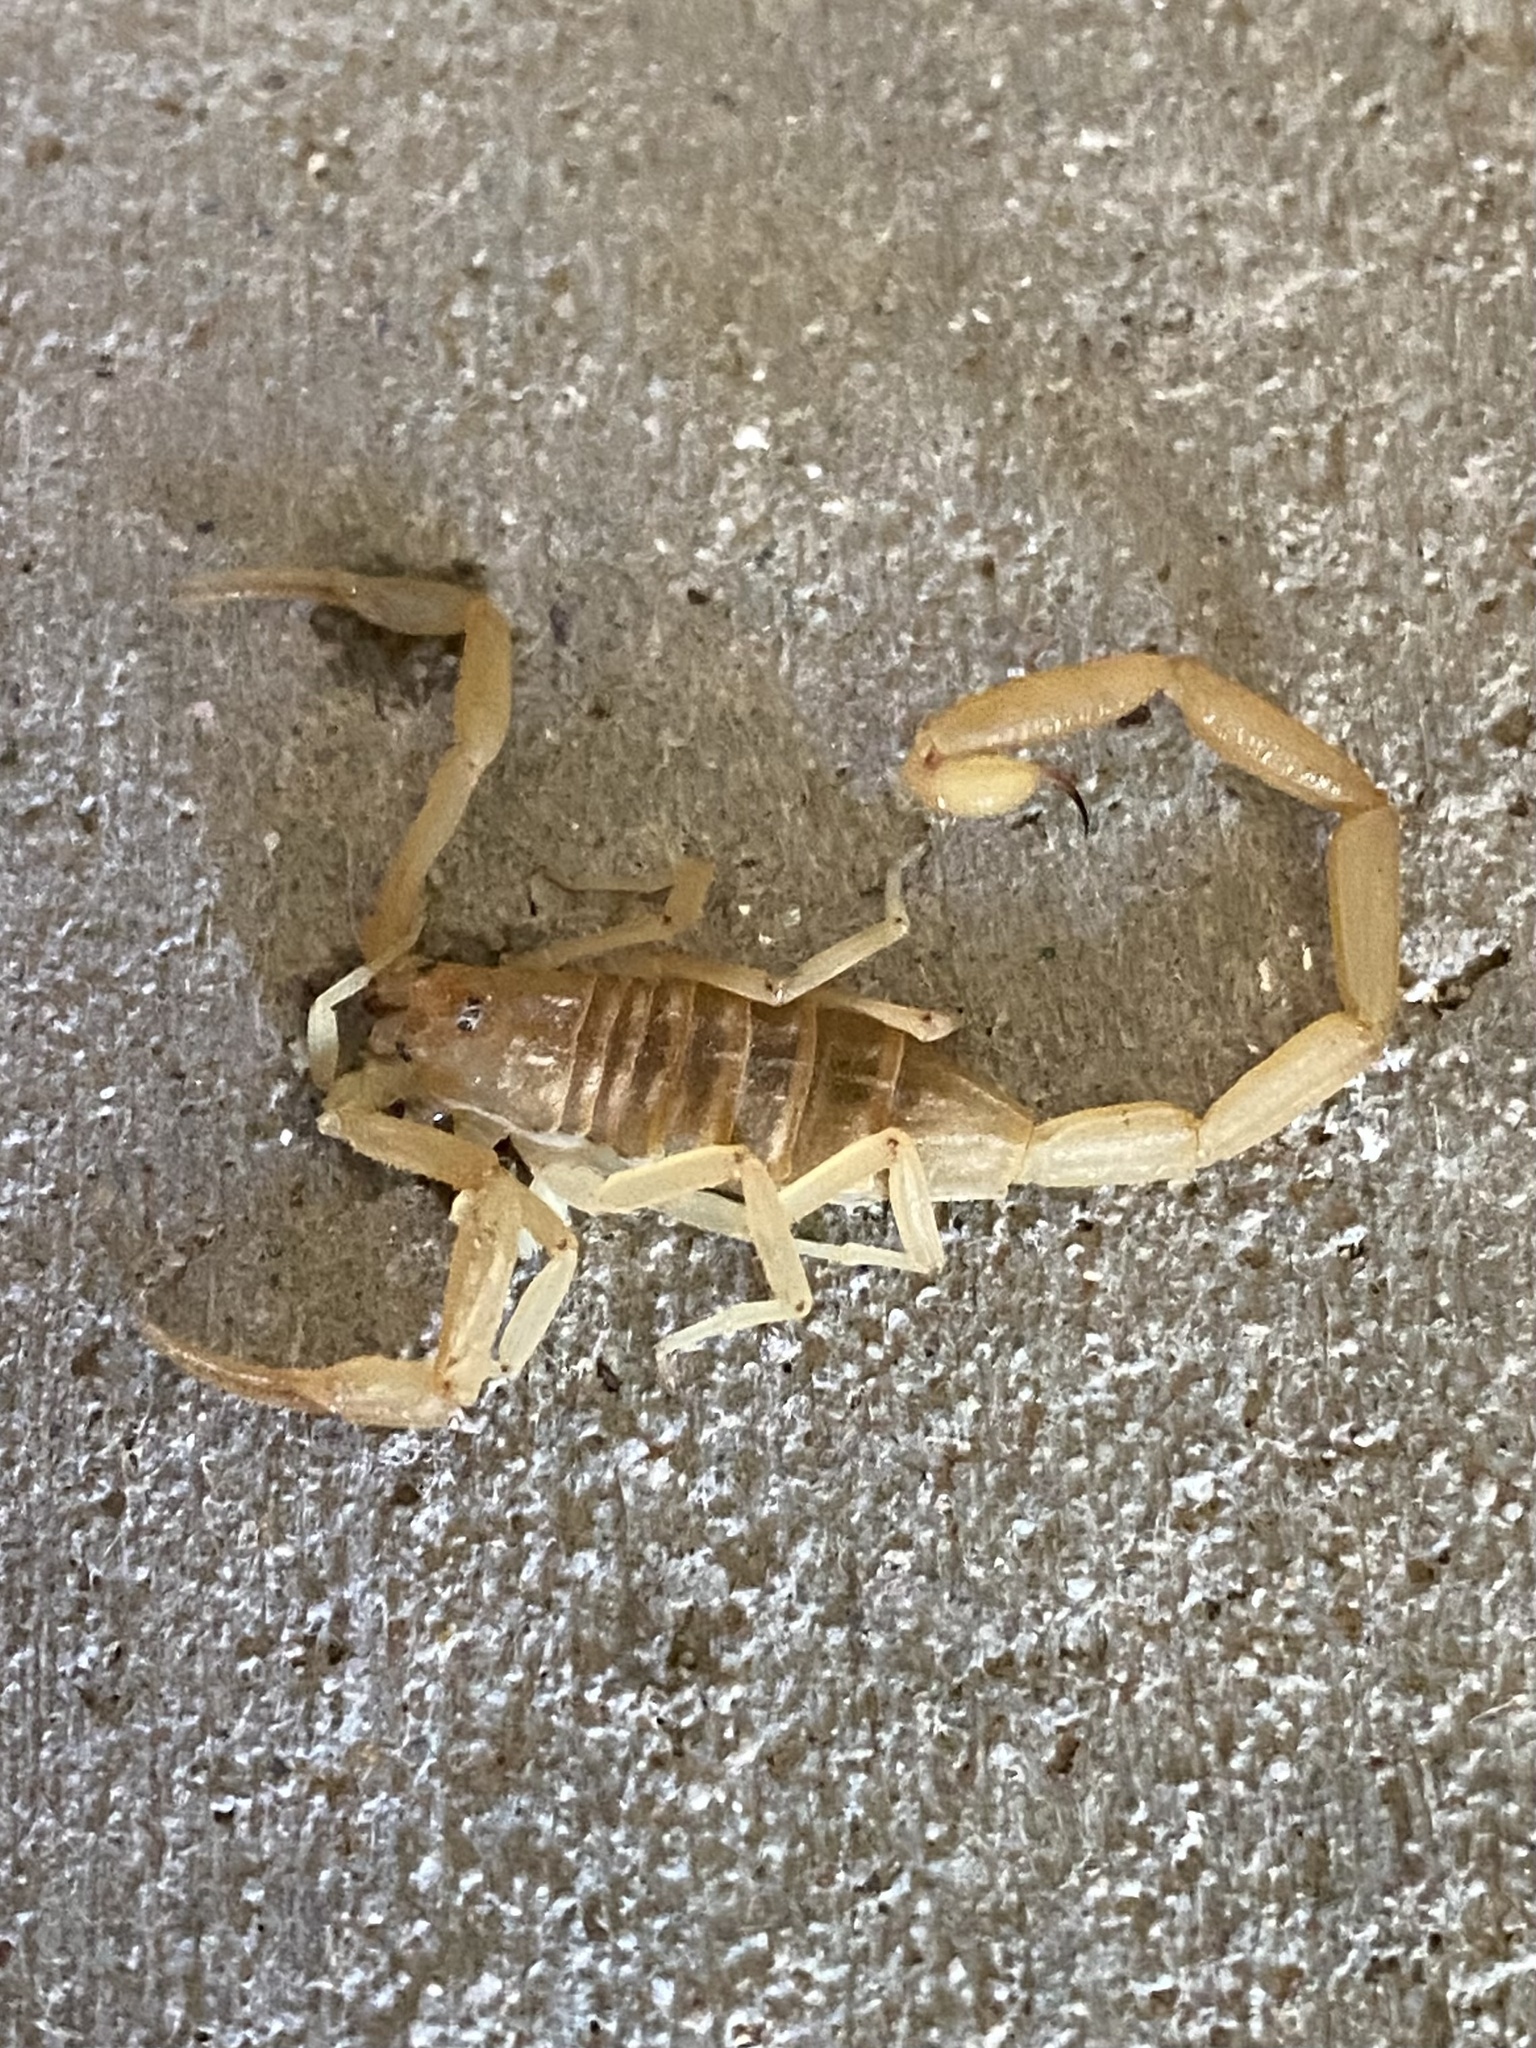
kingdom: Animalia
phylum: Arthropoda
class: Arachnida
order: Scorpiones
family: Buthidae
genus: Centruroides
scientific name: Centruroides sculpturatus
